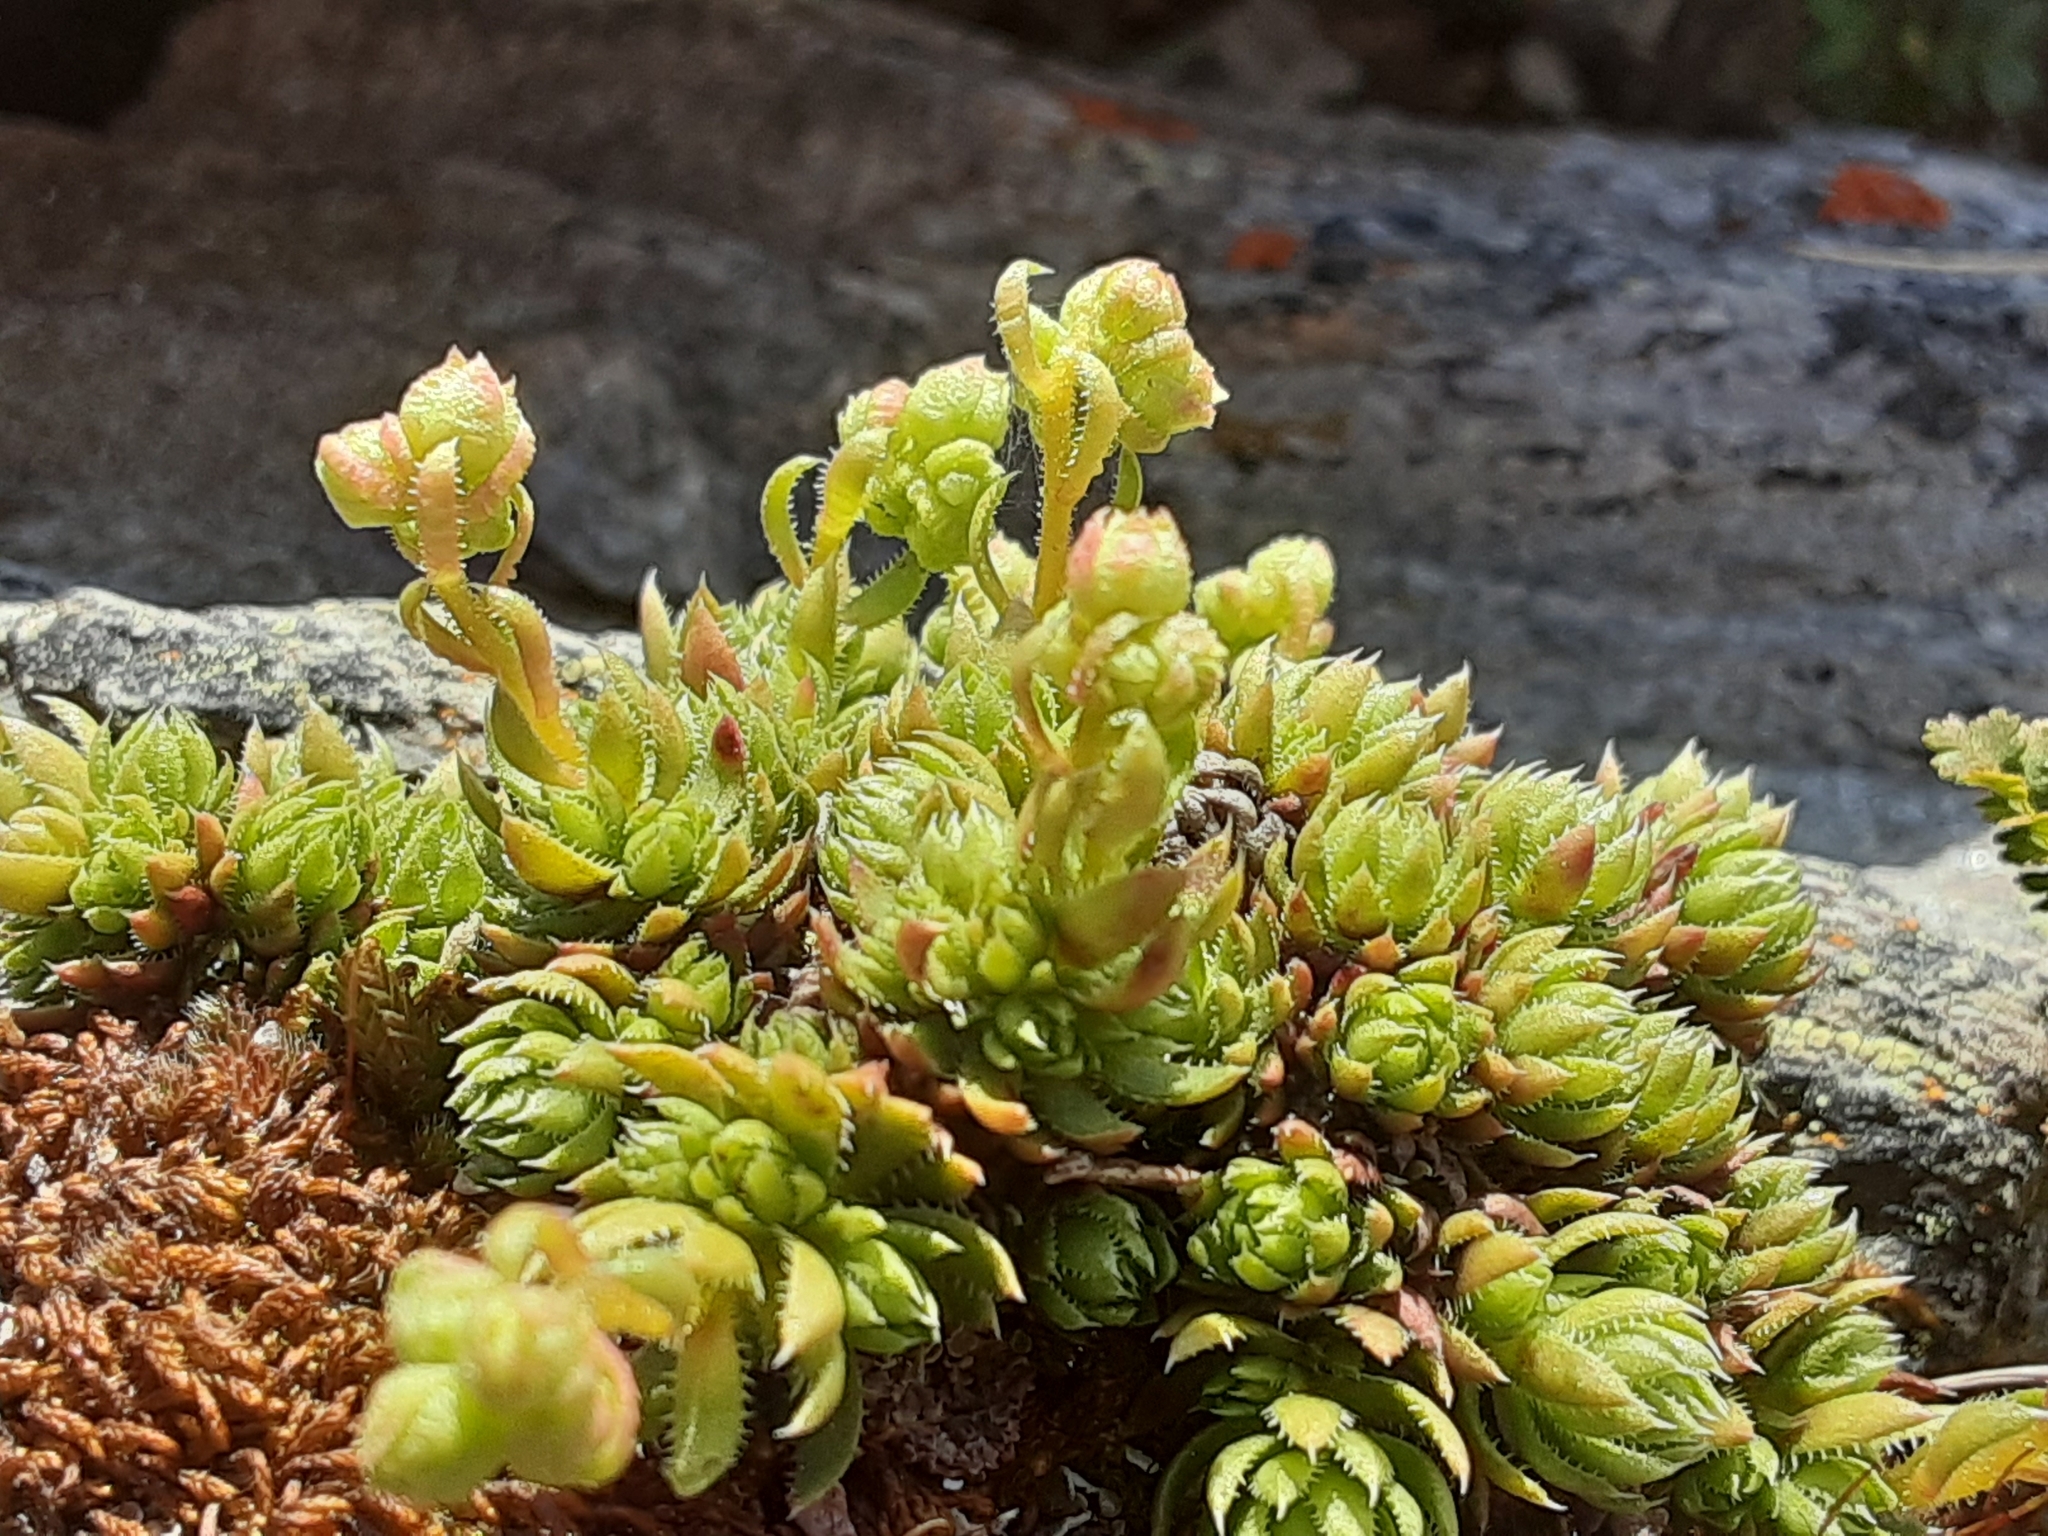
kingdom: Plantae
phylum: Tracheophyta
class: Magnoliopsida
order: Saxifragales
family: Saxifragaceae
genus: Saxifraga
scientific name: Saxifraga bronchialis
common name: Matted saxifrage
